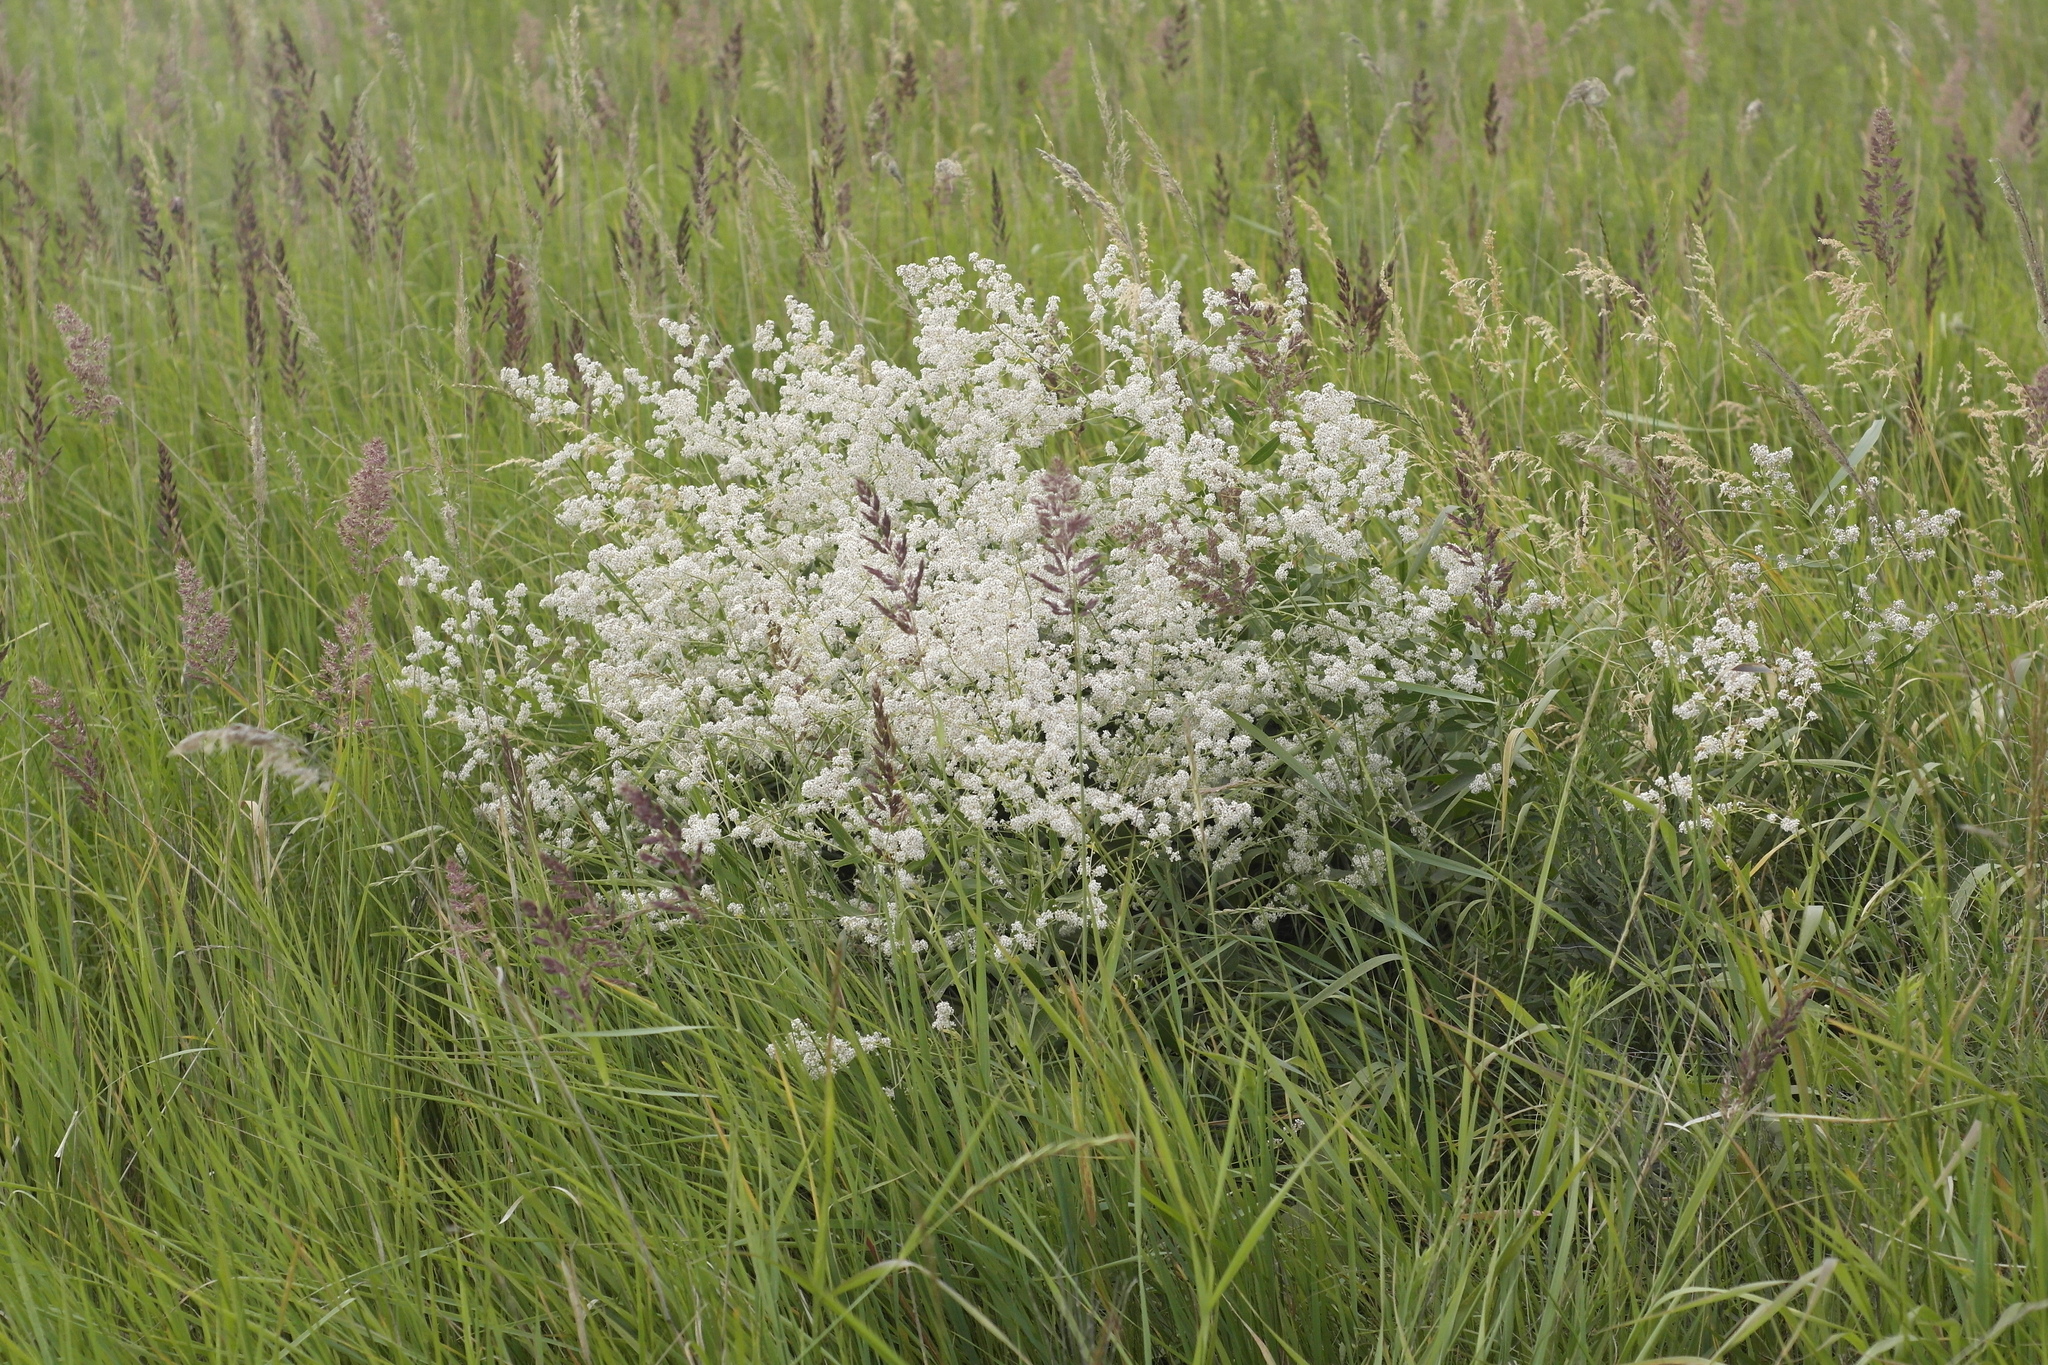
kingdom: Plantae
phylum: Tracheophyta
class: Magnoliopsida
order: Brassicales
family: Brassicaceae
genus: Lepidium
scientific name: Lepidium latifolium
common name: Dittander
